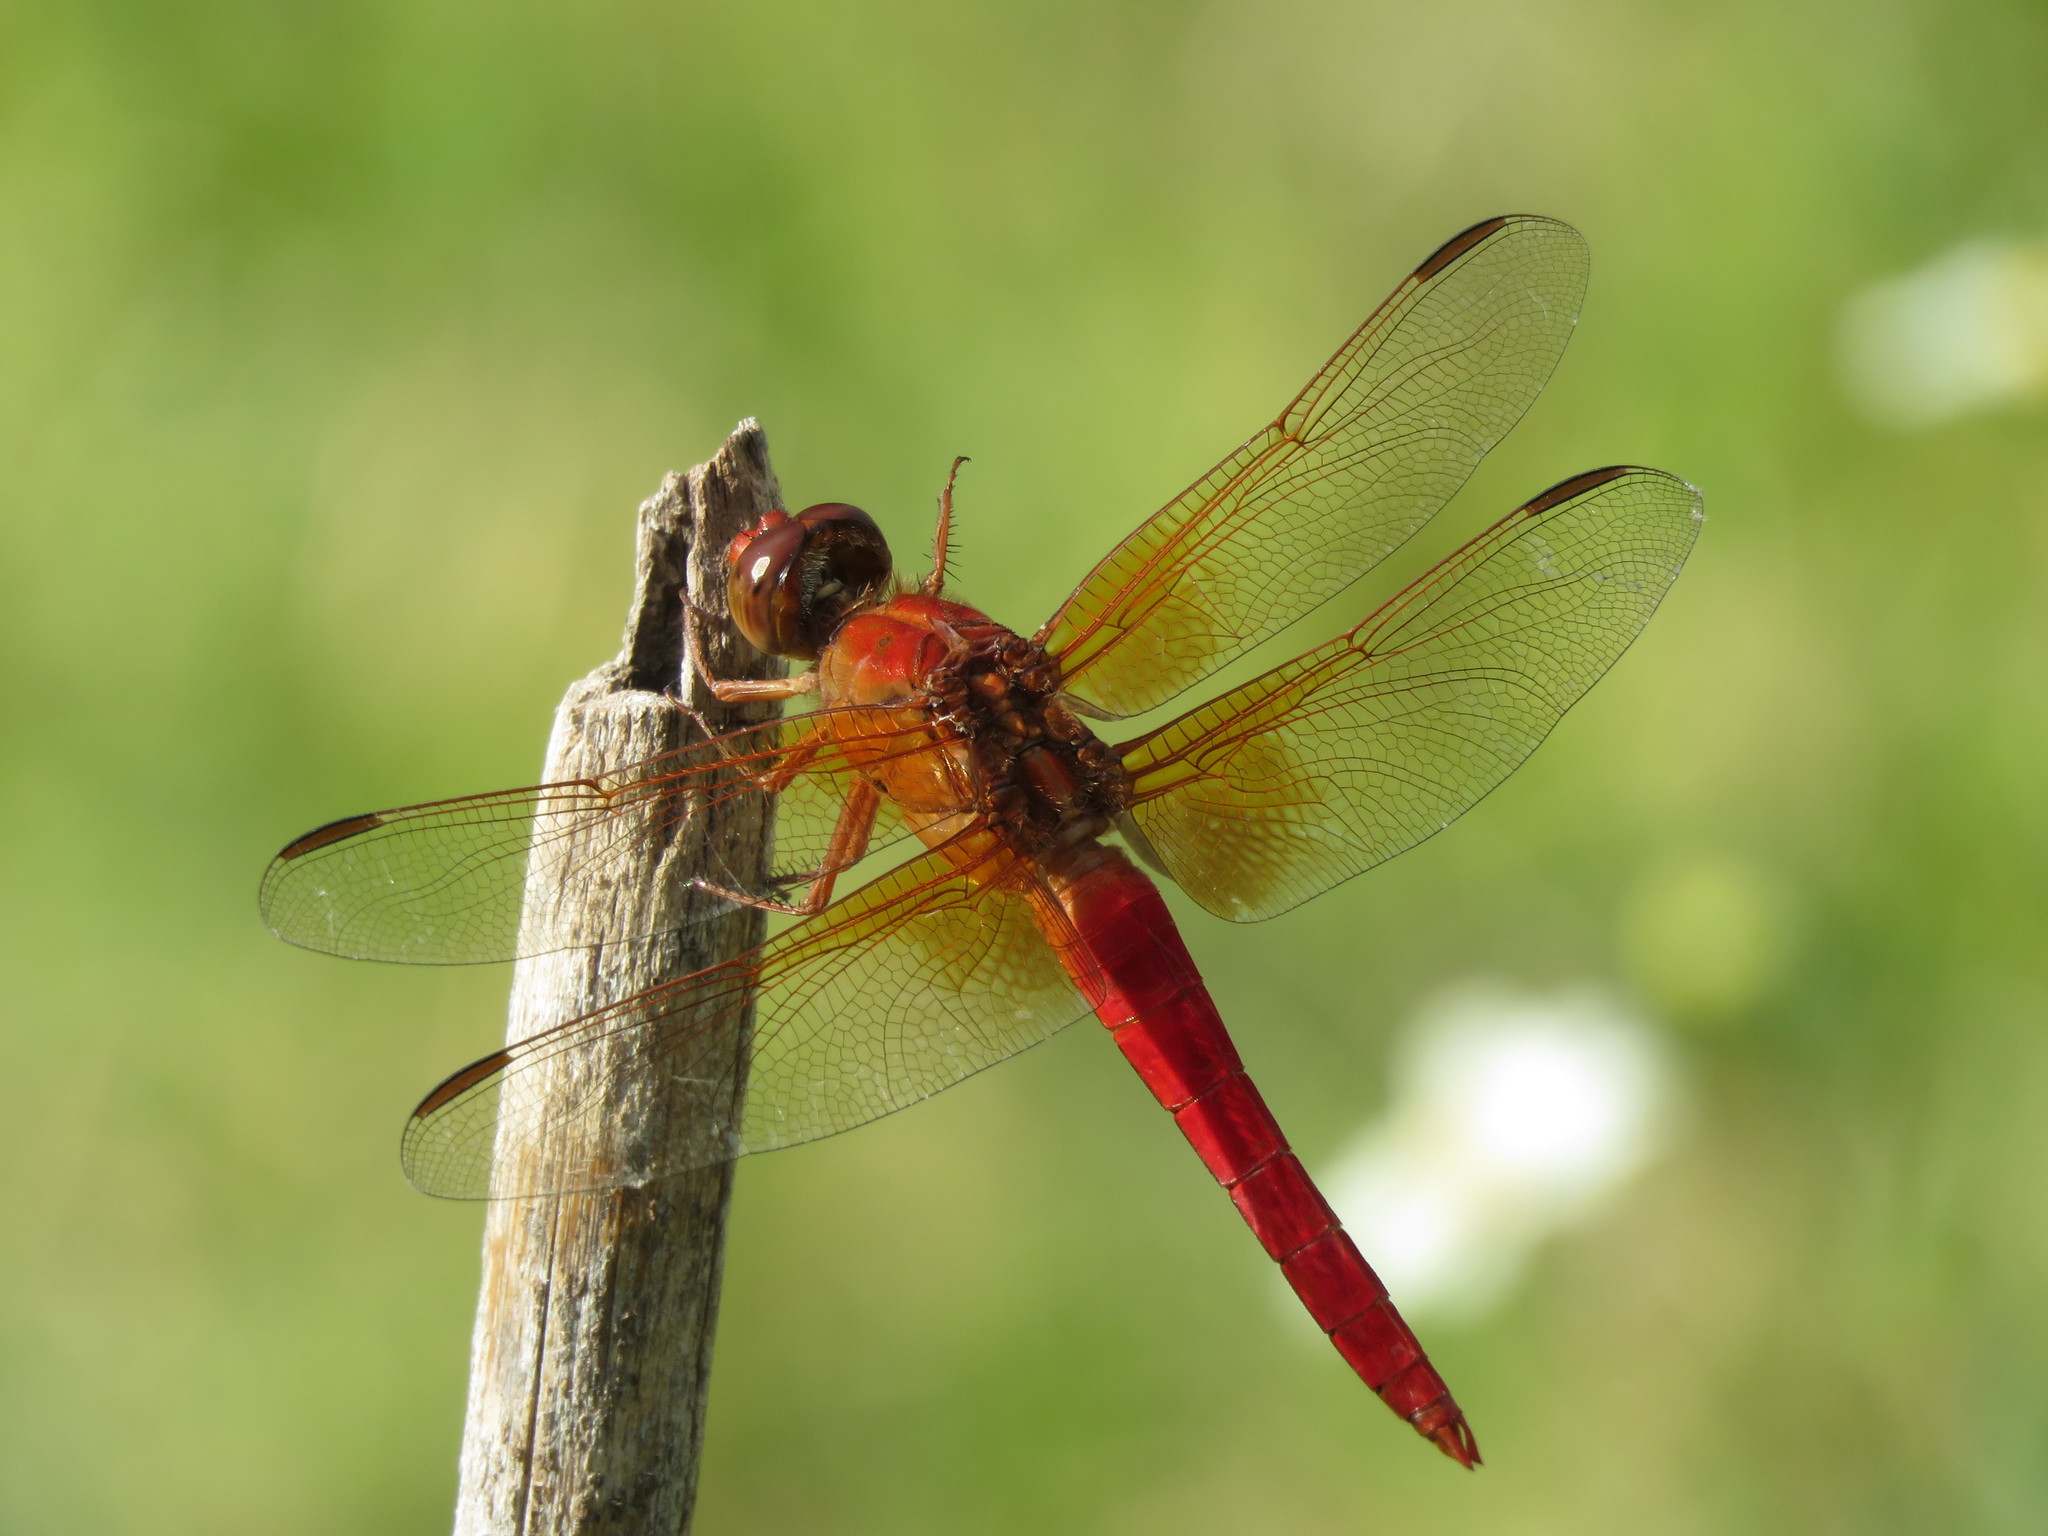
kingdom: Animalia
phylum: Arthropoda
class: Insecta
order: Odonata
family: Libellulidae
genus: Libellula
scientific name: Libellula croceipennis
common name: Neon skimmer
